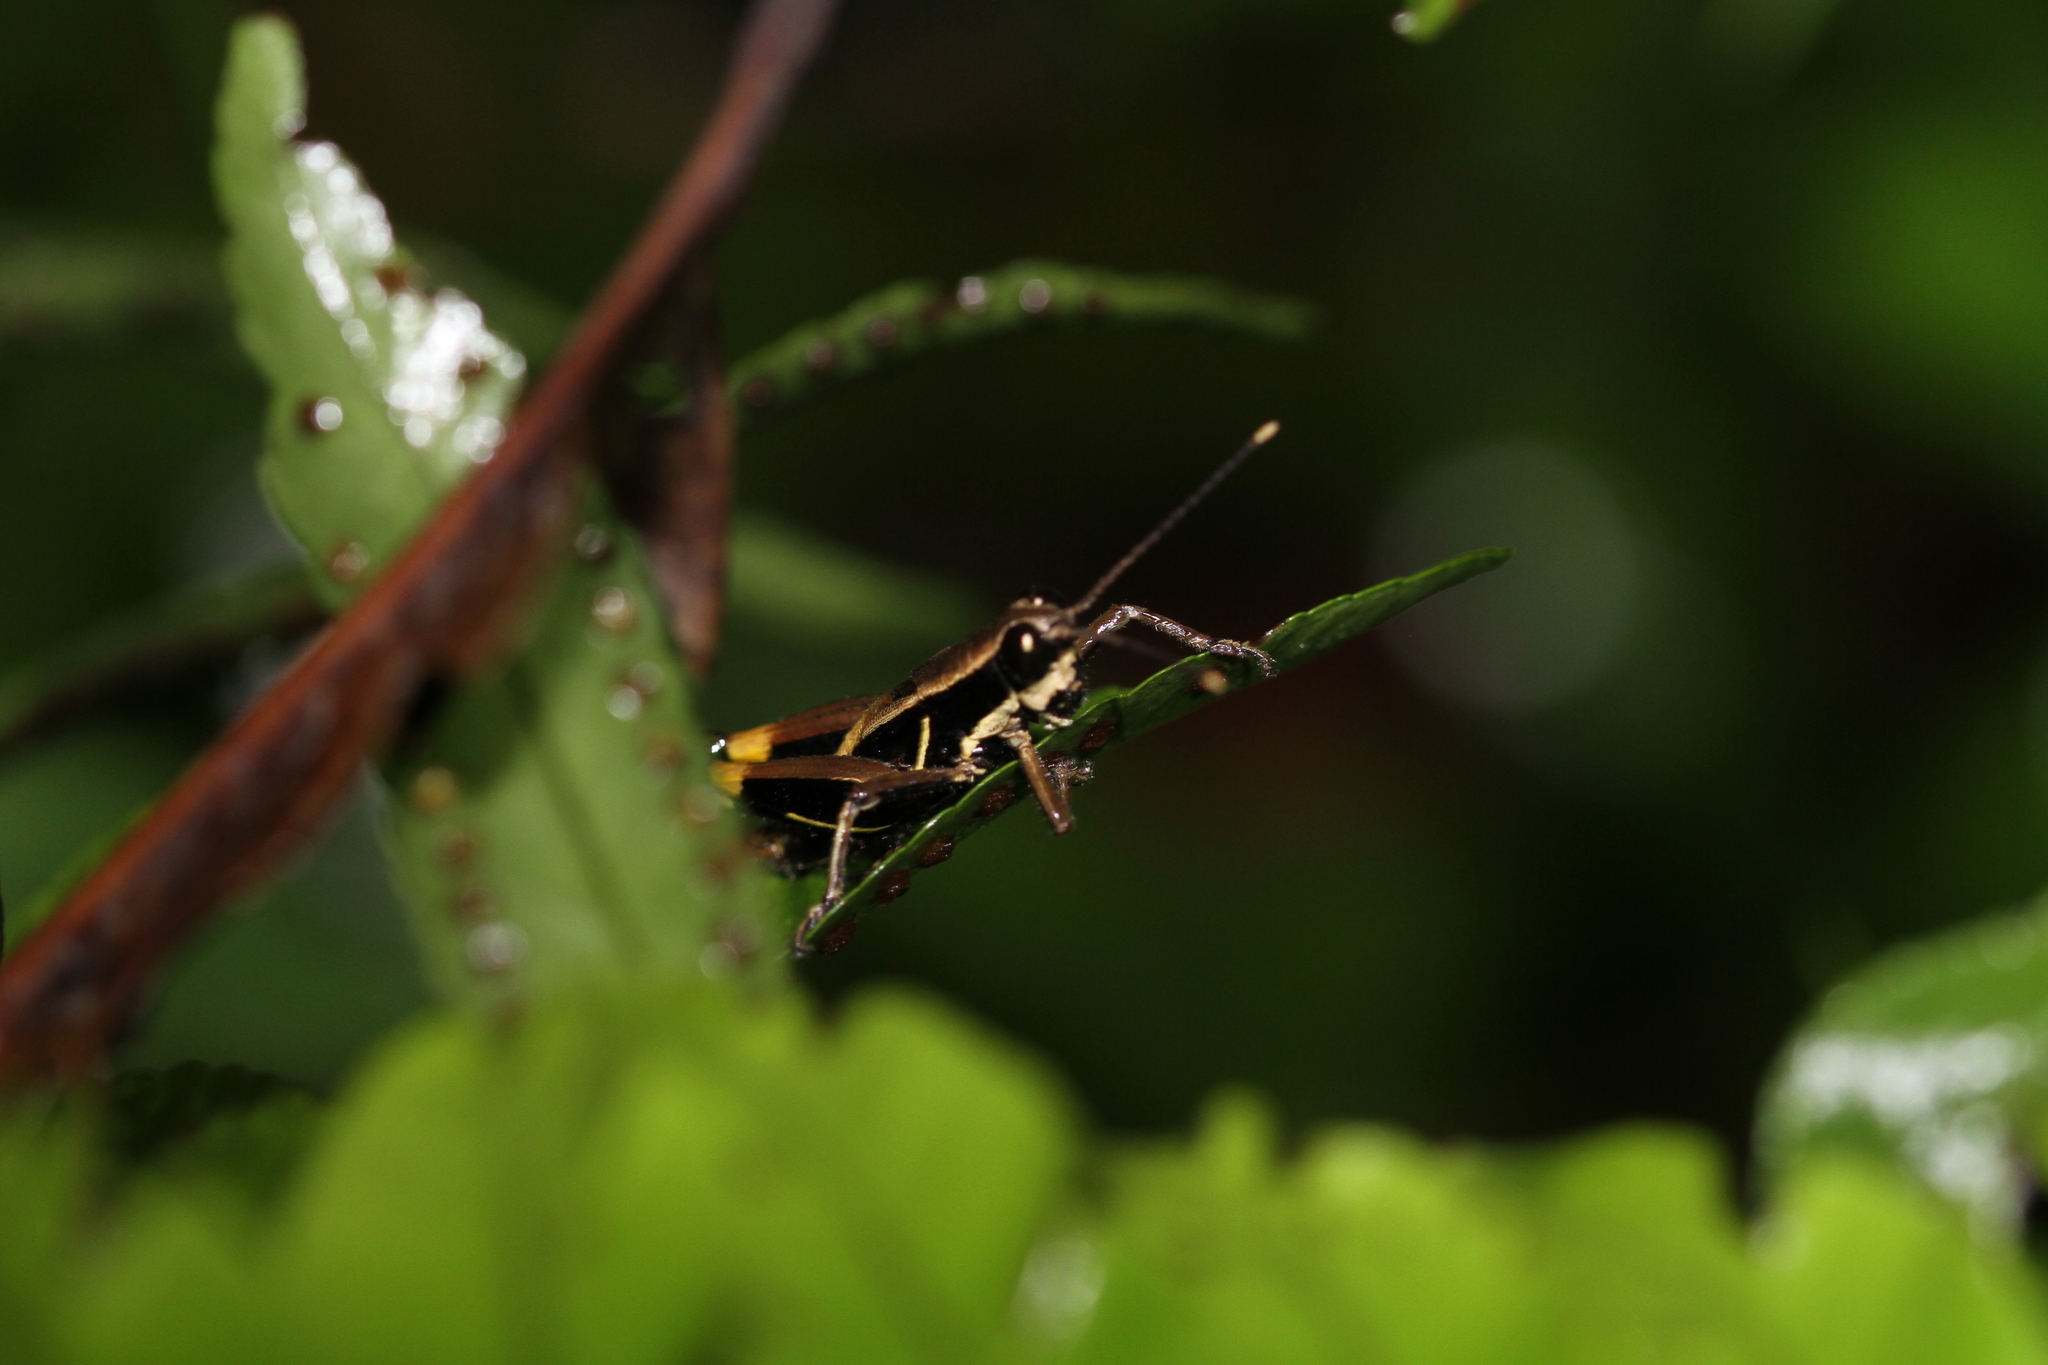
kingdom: Animalia
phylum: Arthropoda
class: Insecta
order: Orthoptera
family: Acrididae
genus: Traulia
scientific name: Traulia flavoannulata
